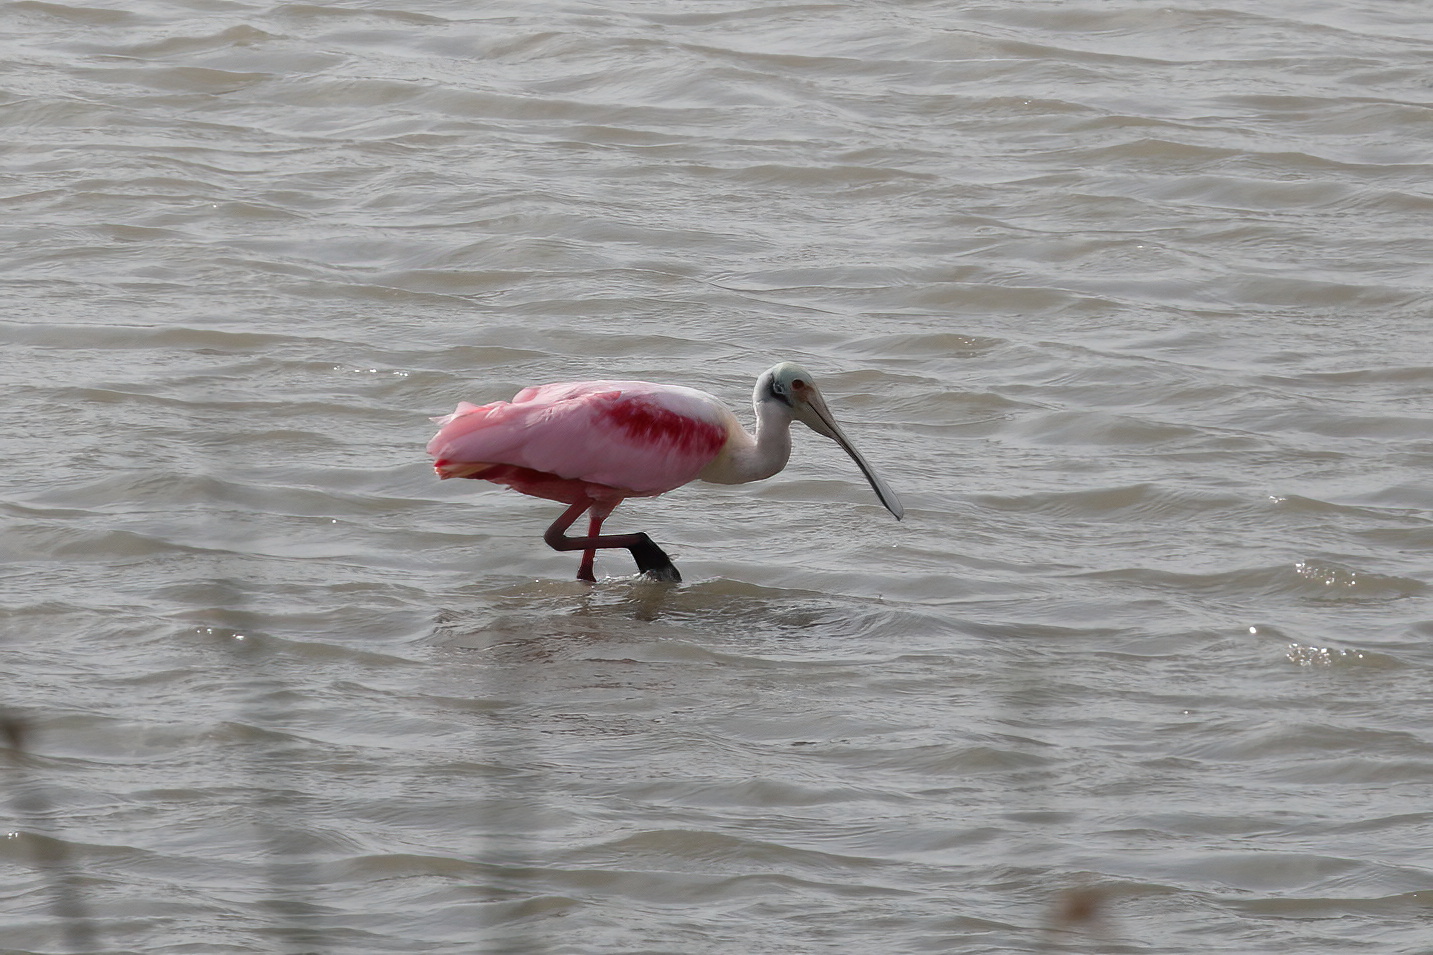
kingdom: Animalia
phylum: Chordata
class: Aves
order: Pelecaniformes
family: Threskiornithidae
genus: Platalea
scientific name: Platalea ajaja
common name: Roseate spoonbill
